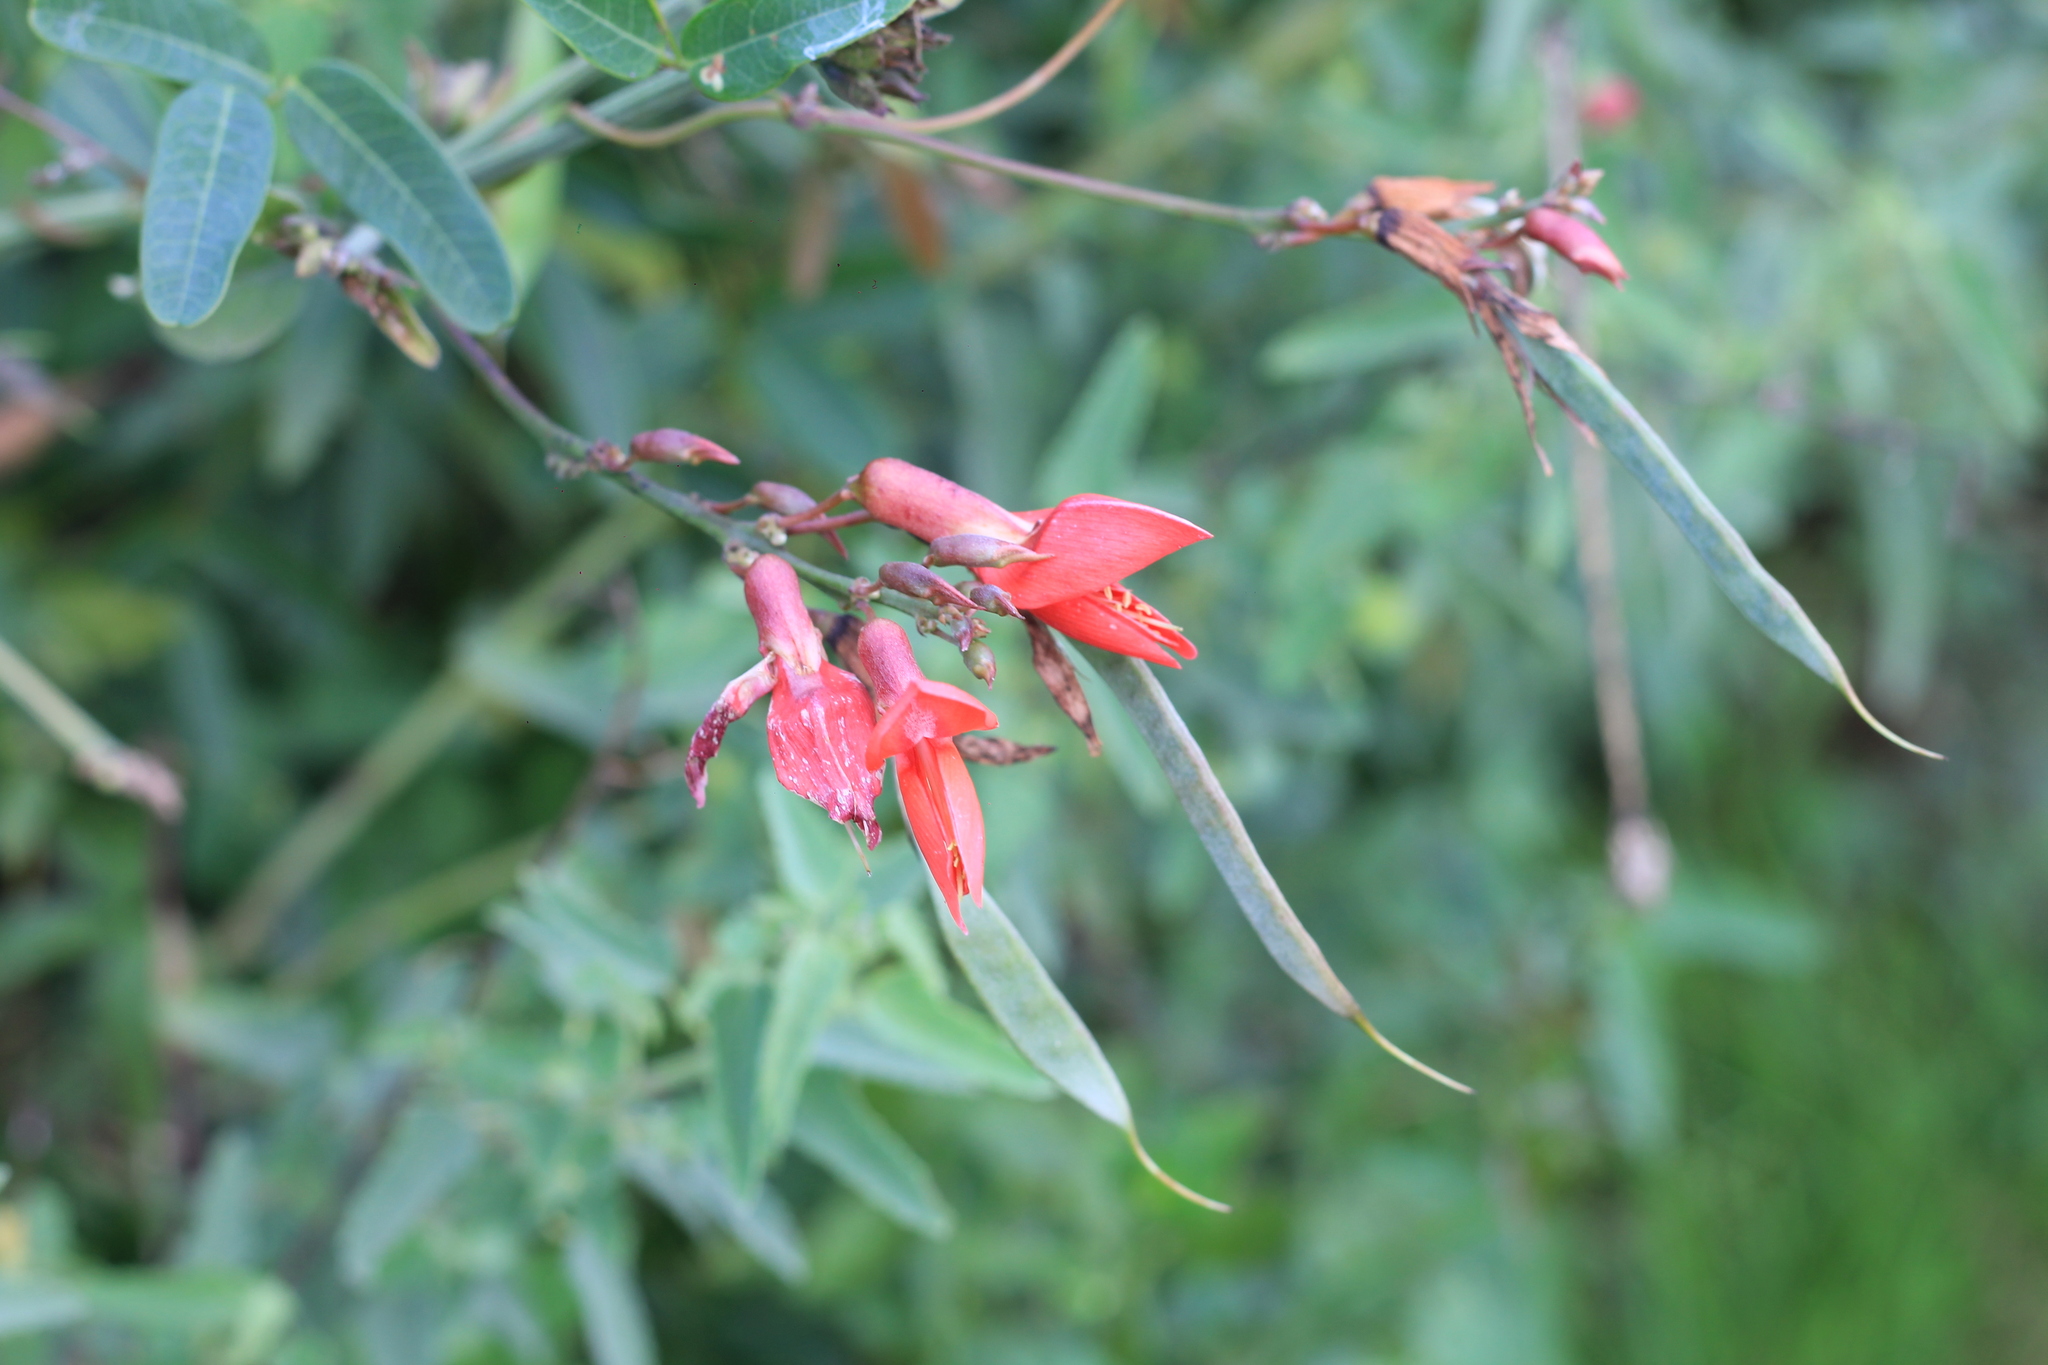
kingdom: Plantae
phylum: Tracheophyta
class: Magnoliopsida
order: Fabales
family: Fabaceae
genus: Camptosema
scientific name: Camptosema rubicundum
